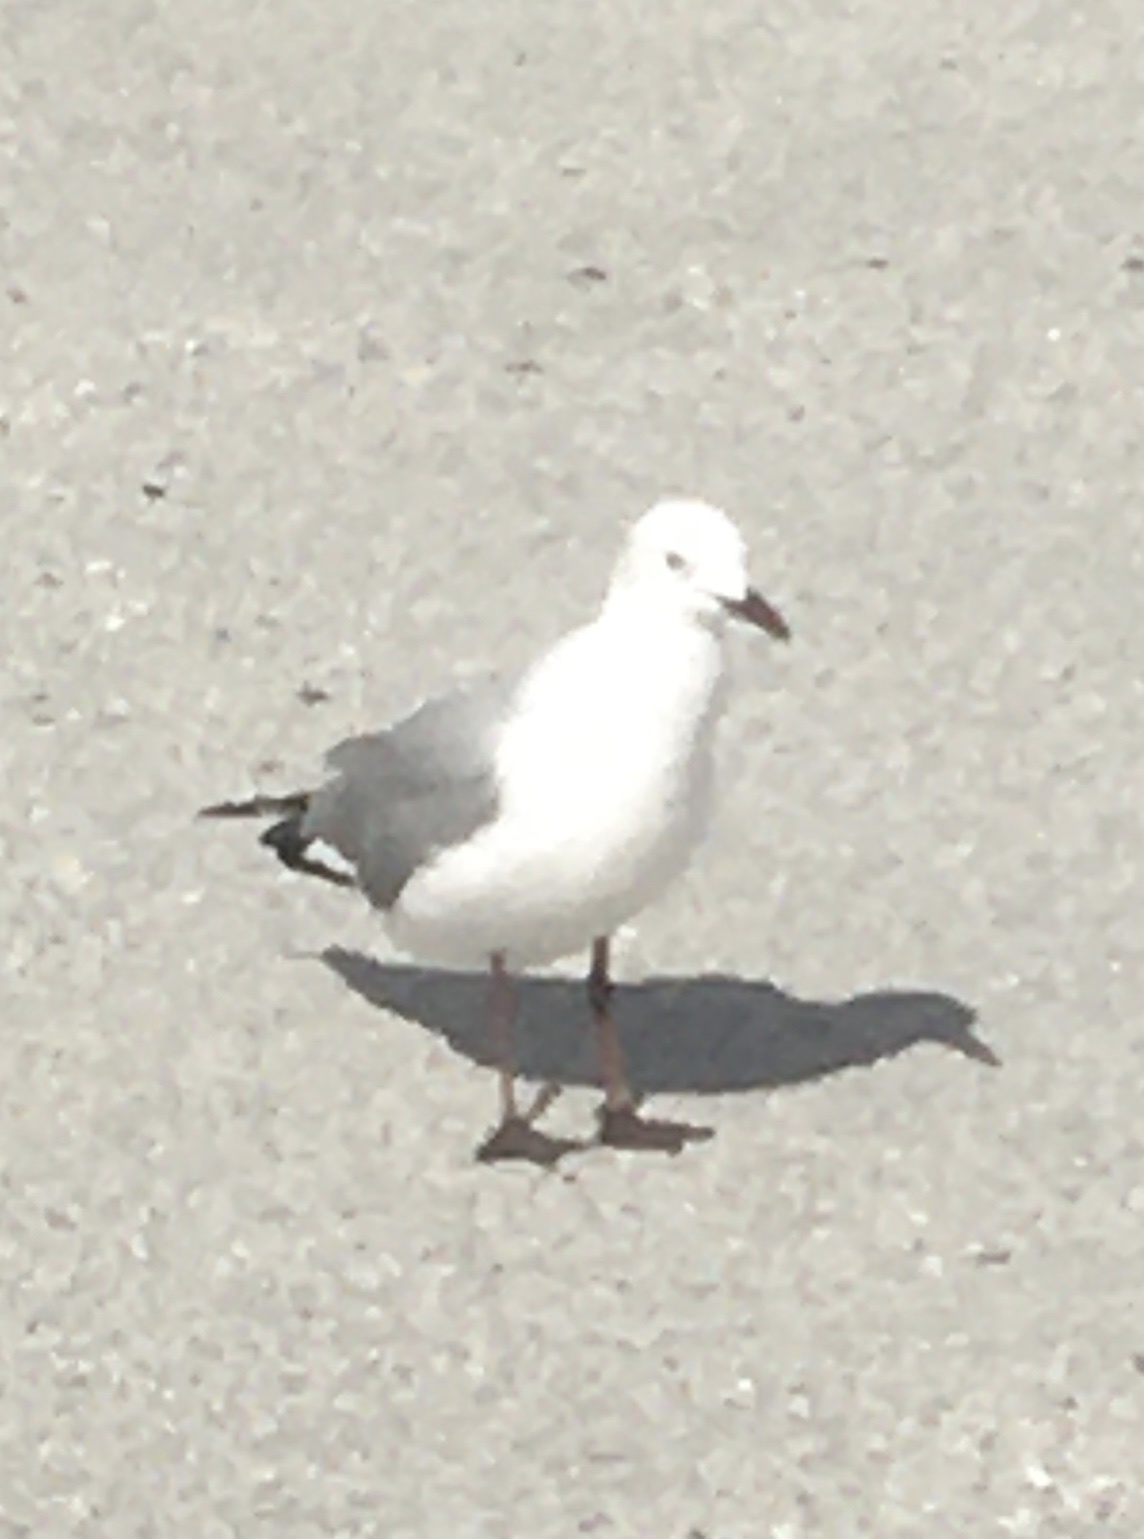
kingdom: Animalia
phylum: Chordata
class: Aves
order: Charadriiformes
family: Laridae
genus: Chroicocephalus
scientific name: Chroicocephalus hartlaubii
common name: Hartlaub's gull
